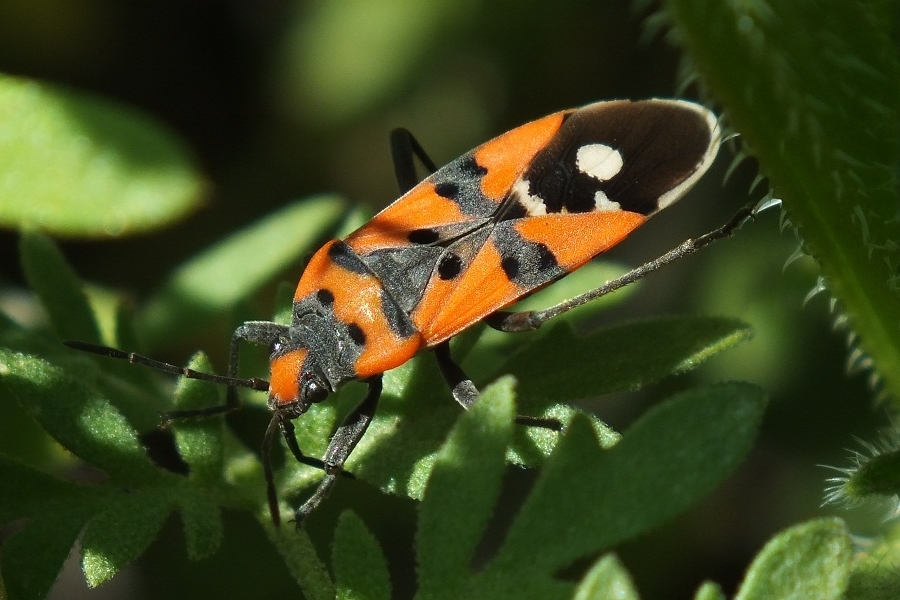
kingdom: Animalia
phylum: Arthropoda
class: Insecta
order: Hemiptera
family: Lygaeidae
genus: Lygaeus
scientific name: Lygaeus equestris
